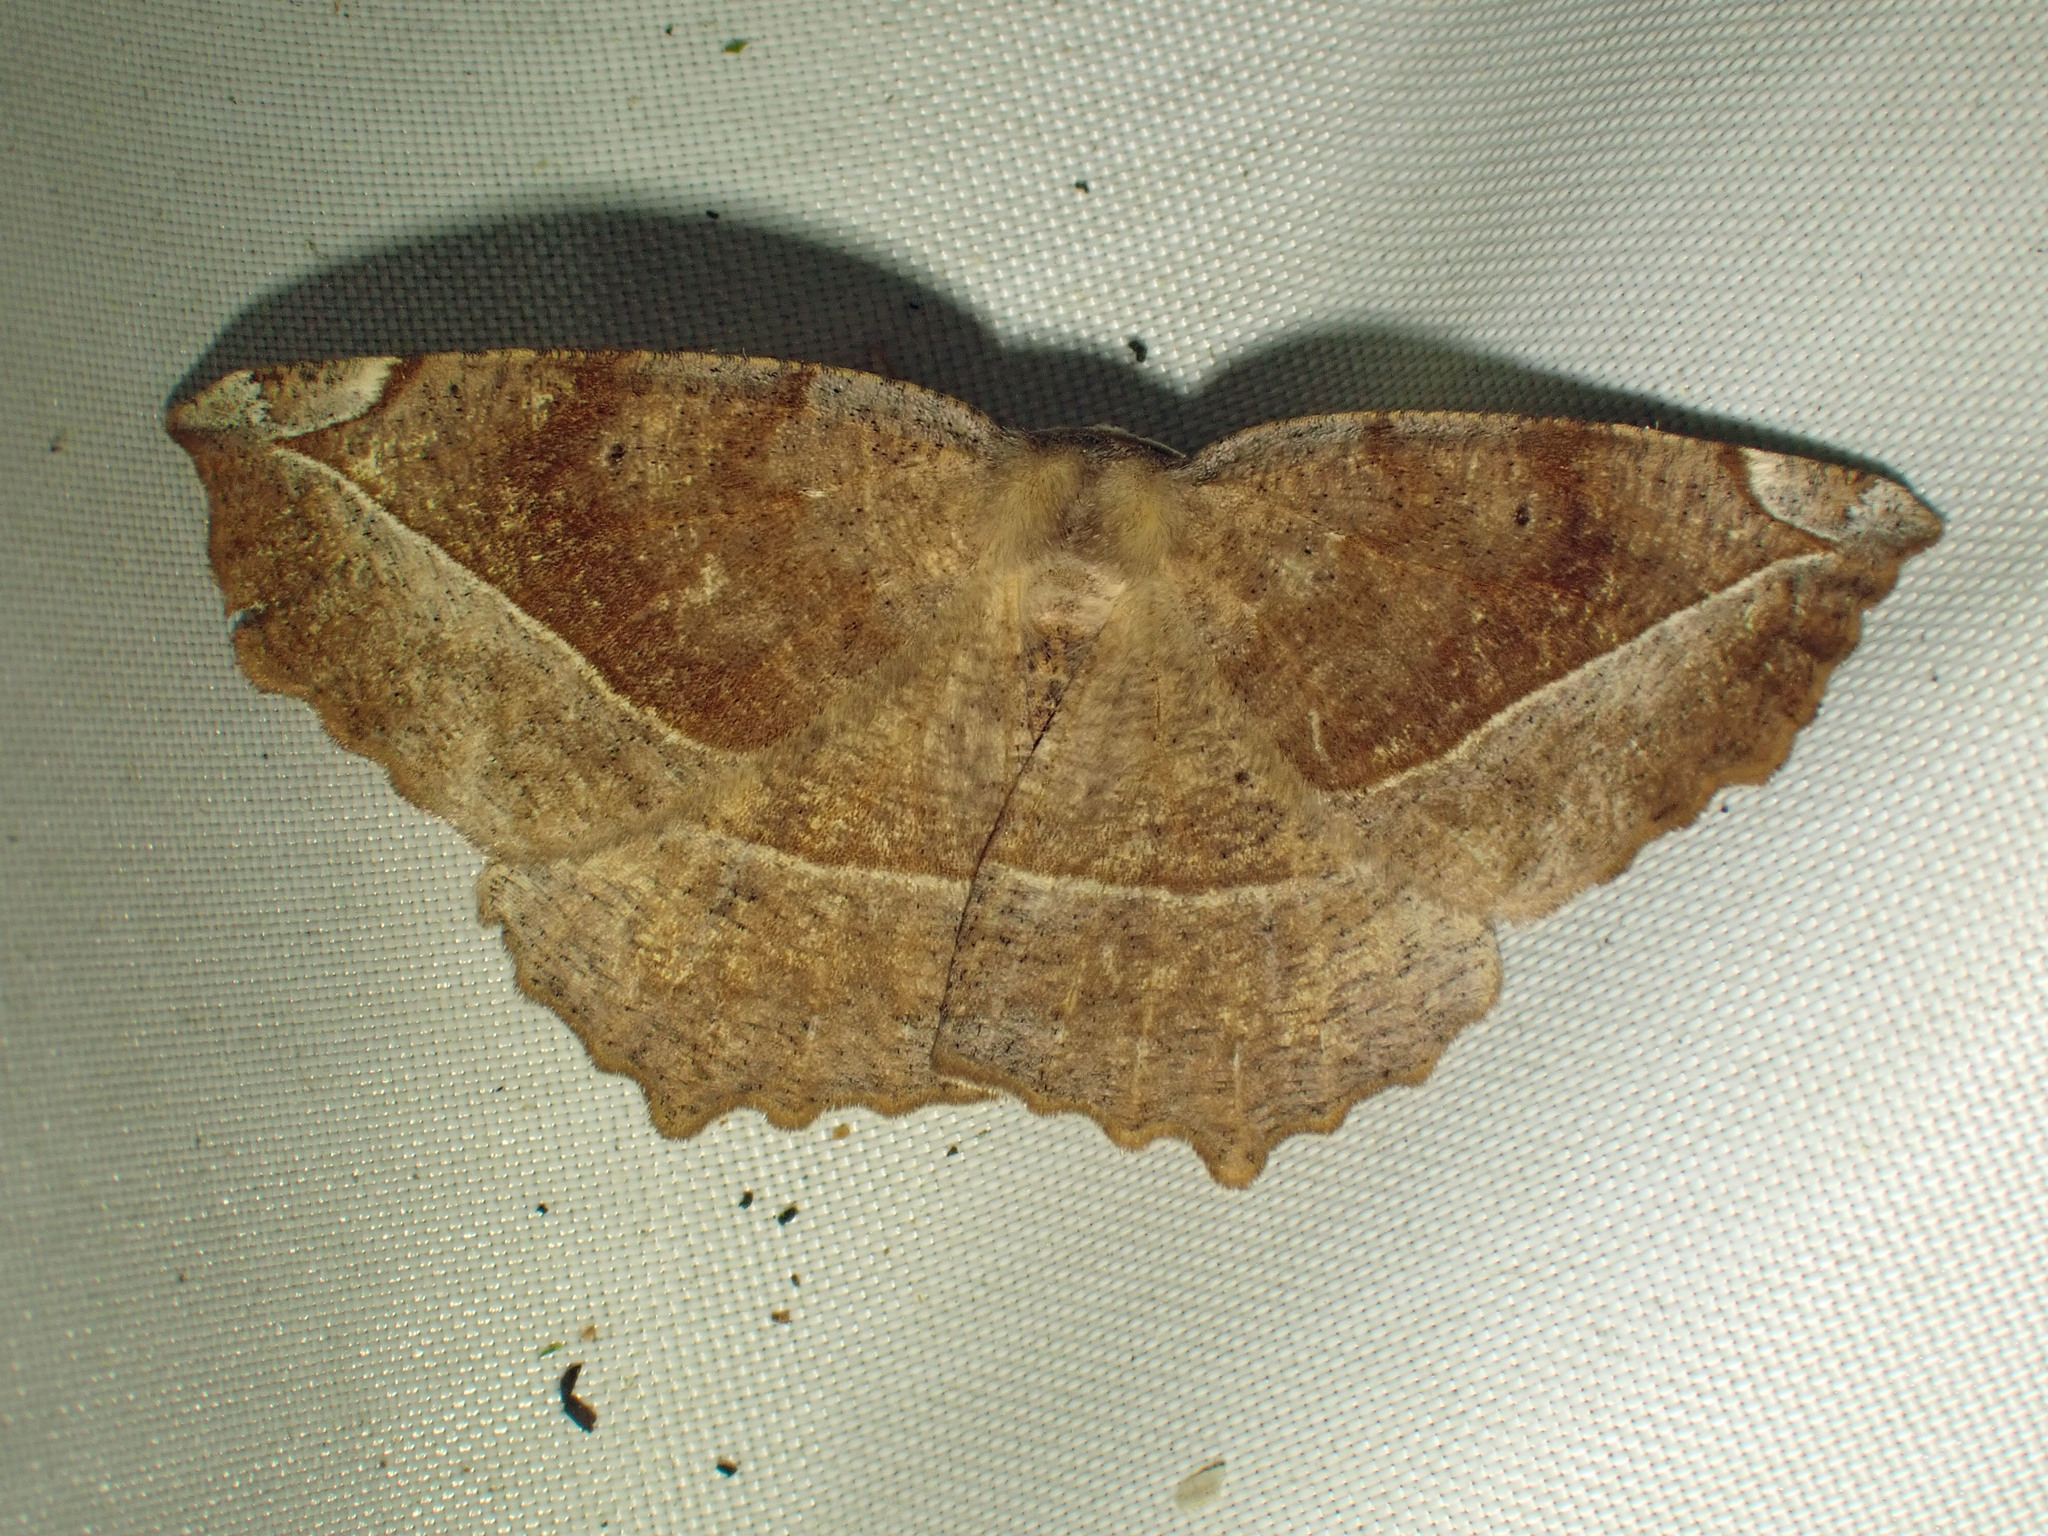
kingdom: Animalia
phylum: Arthropoda
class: Insecta
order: Lepidoptera
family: Geometridae
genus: Eutrapela
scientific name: Eutrapela clemataria
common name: Curved-toothed geometer
